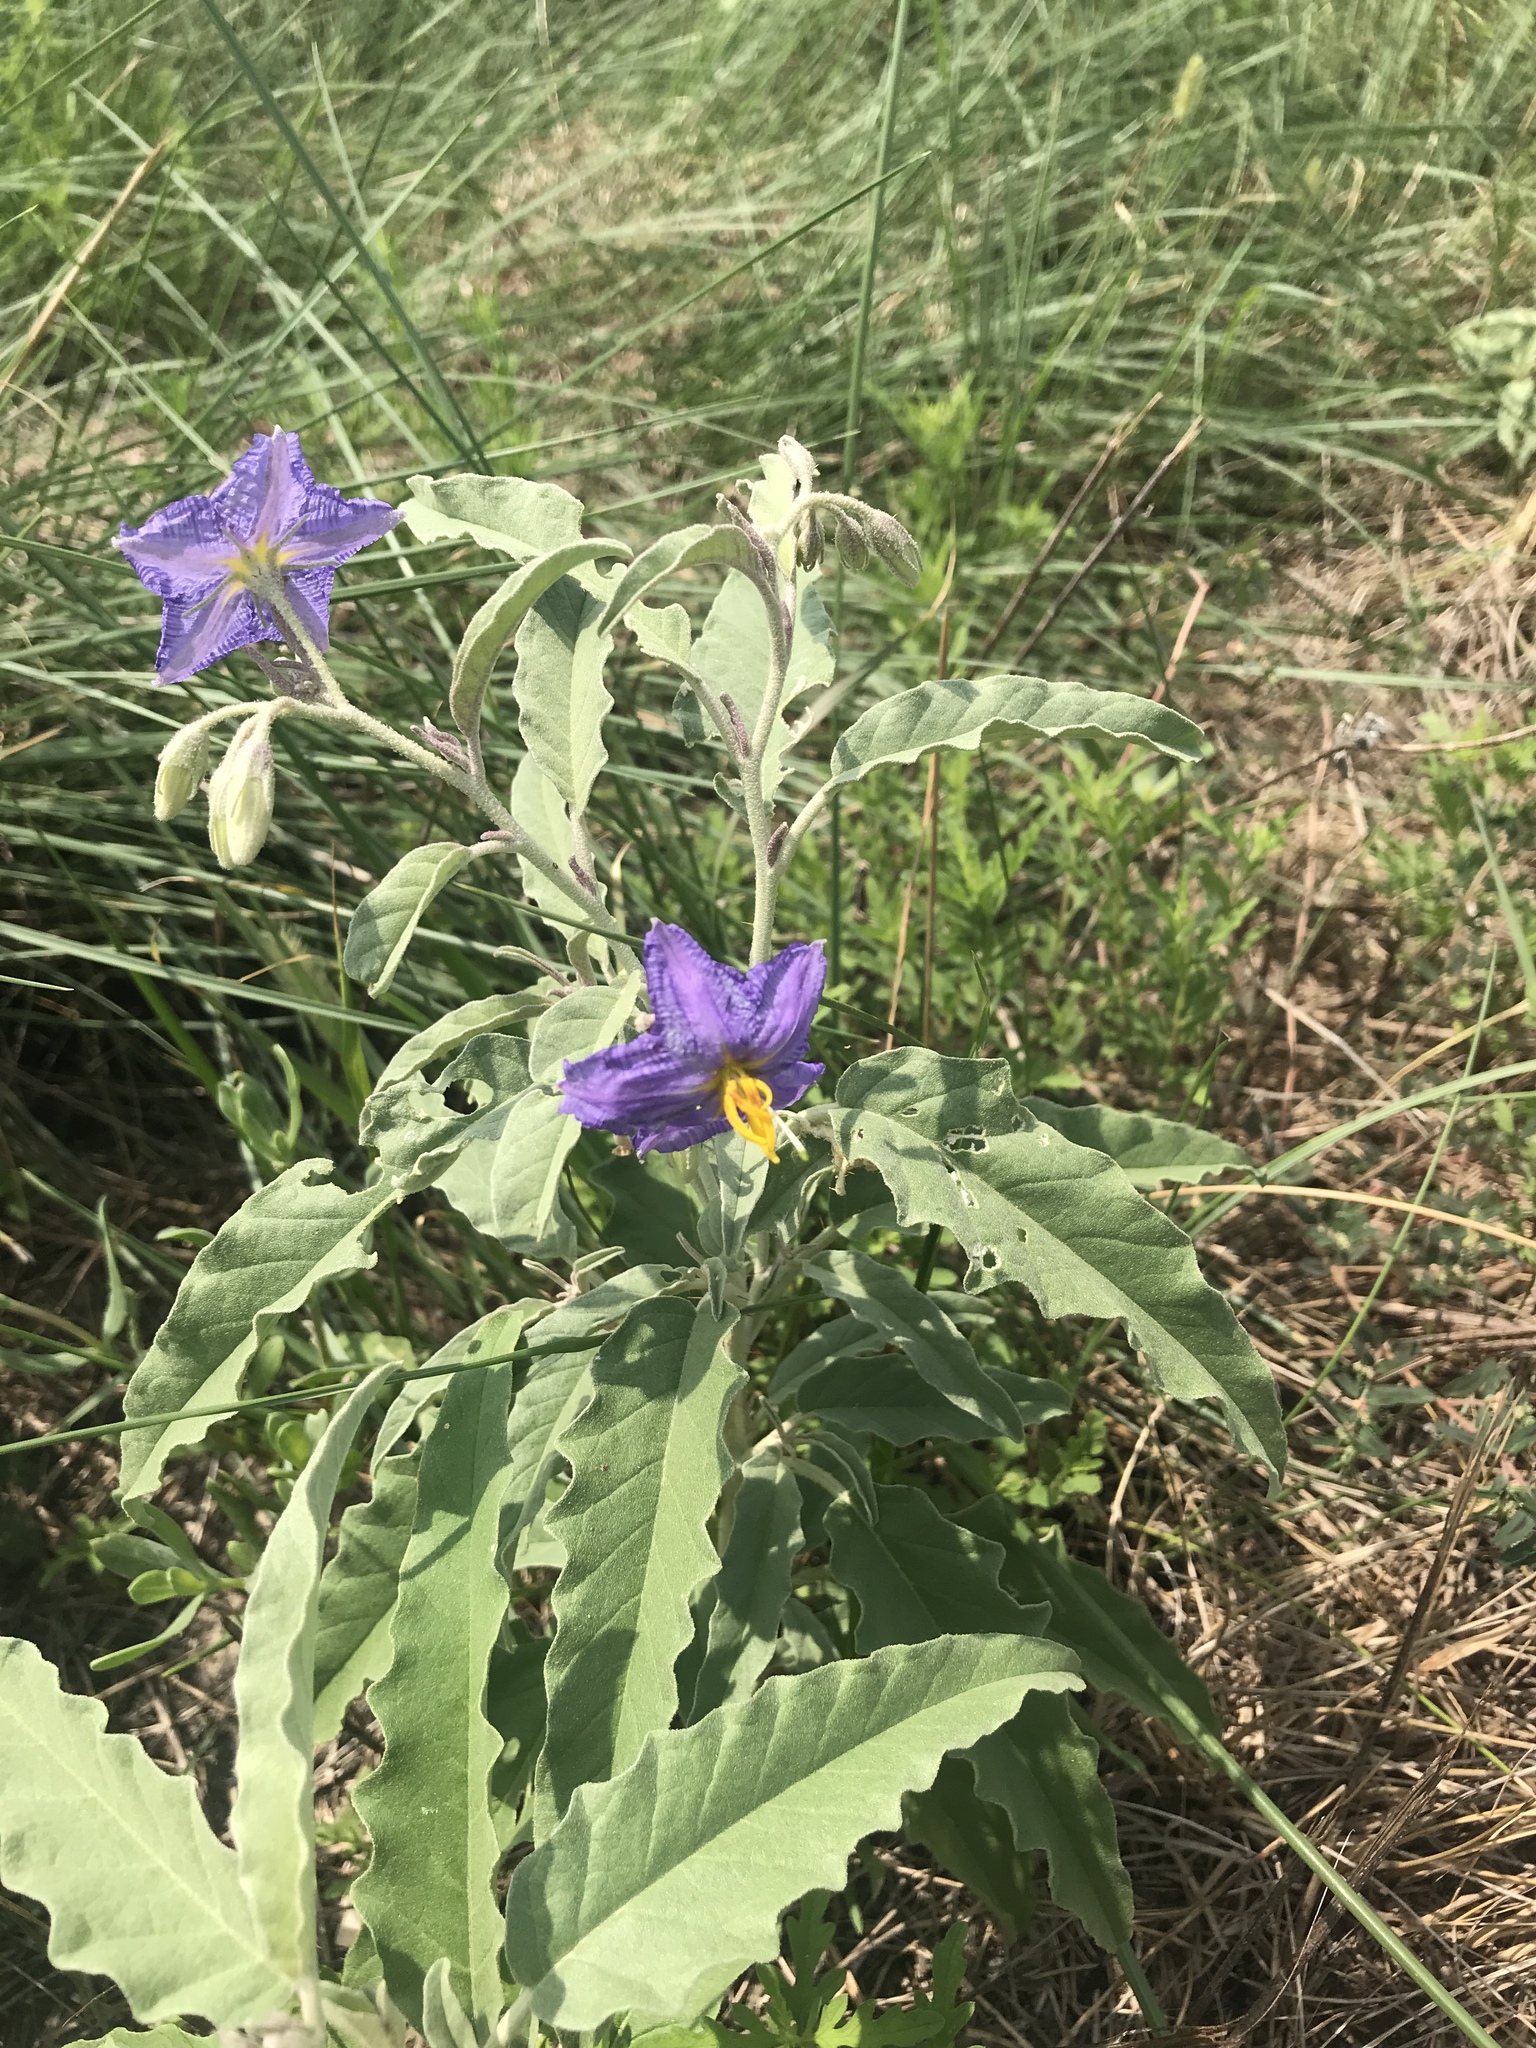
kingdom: Plantae
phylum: Tracheophyta
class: Magnoliopsida
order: Solanales
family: Solanaceae
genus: Solanum
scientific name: Solanum elaeagnifolium
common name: Silverleaf nightshade
